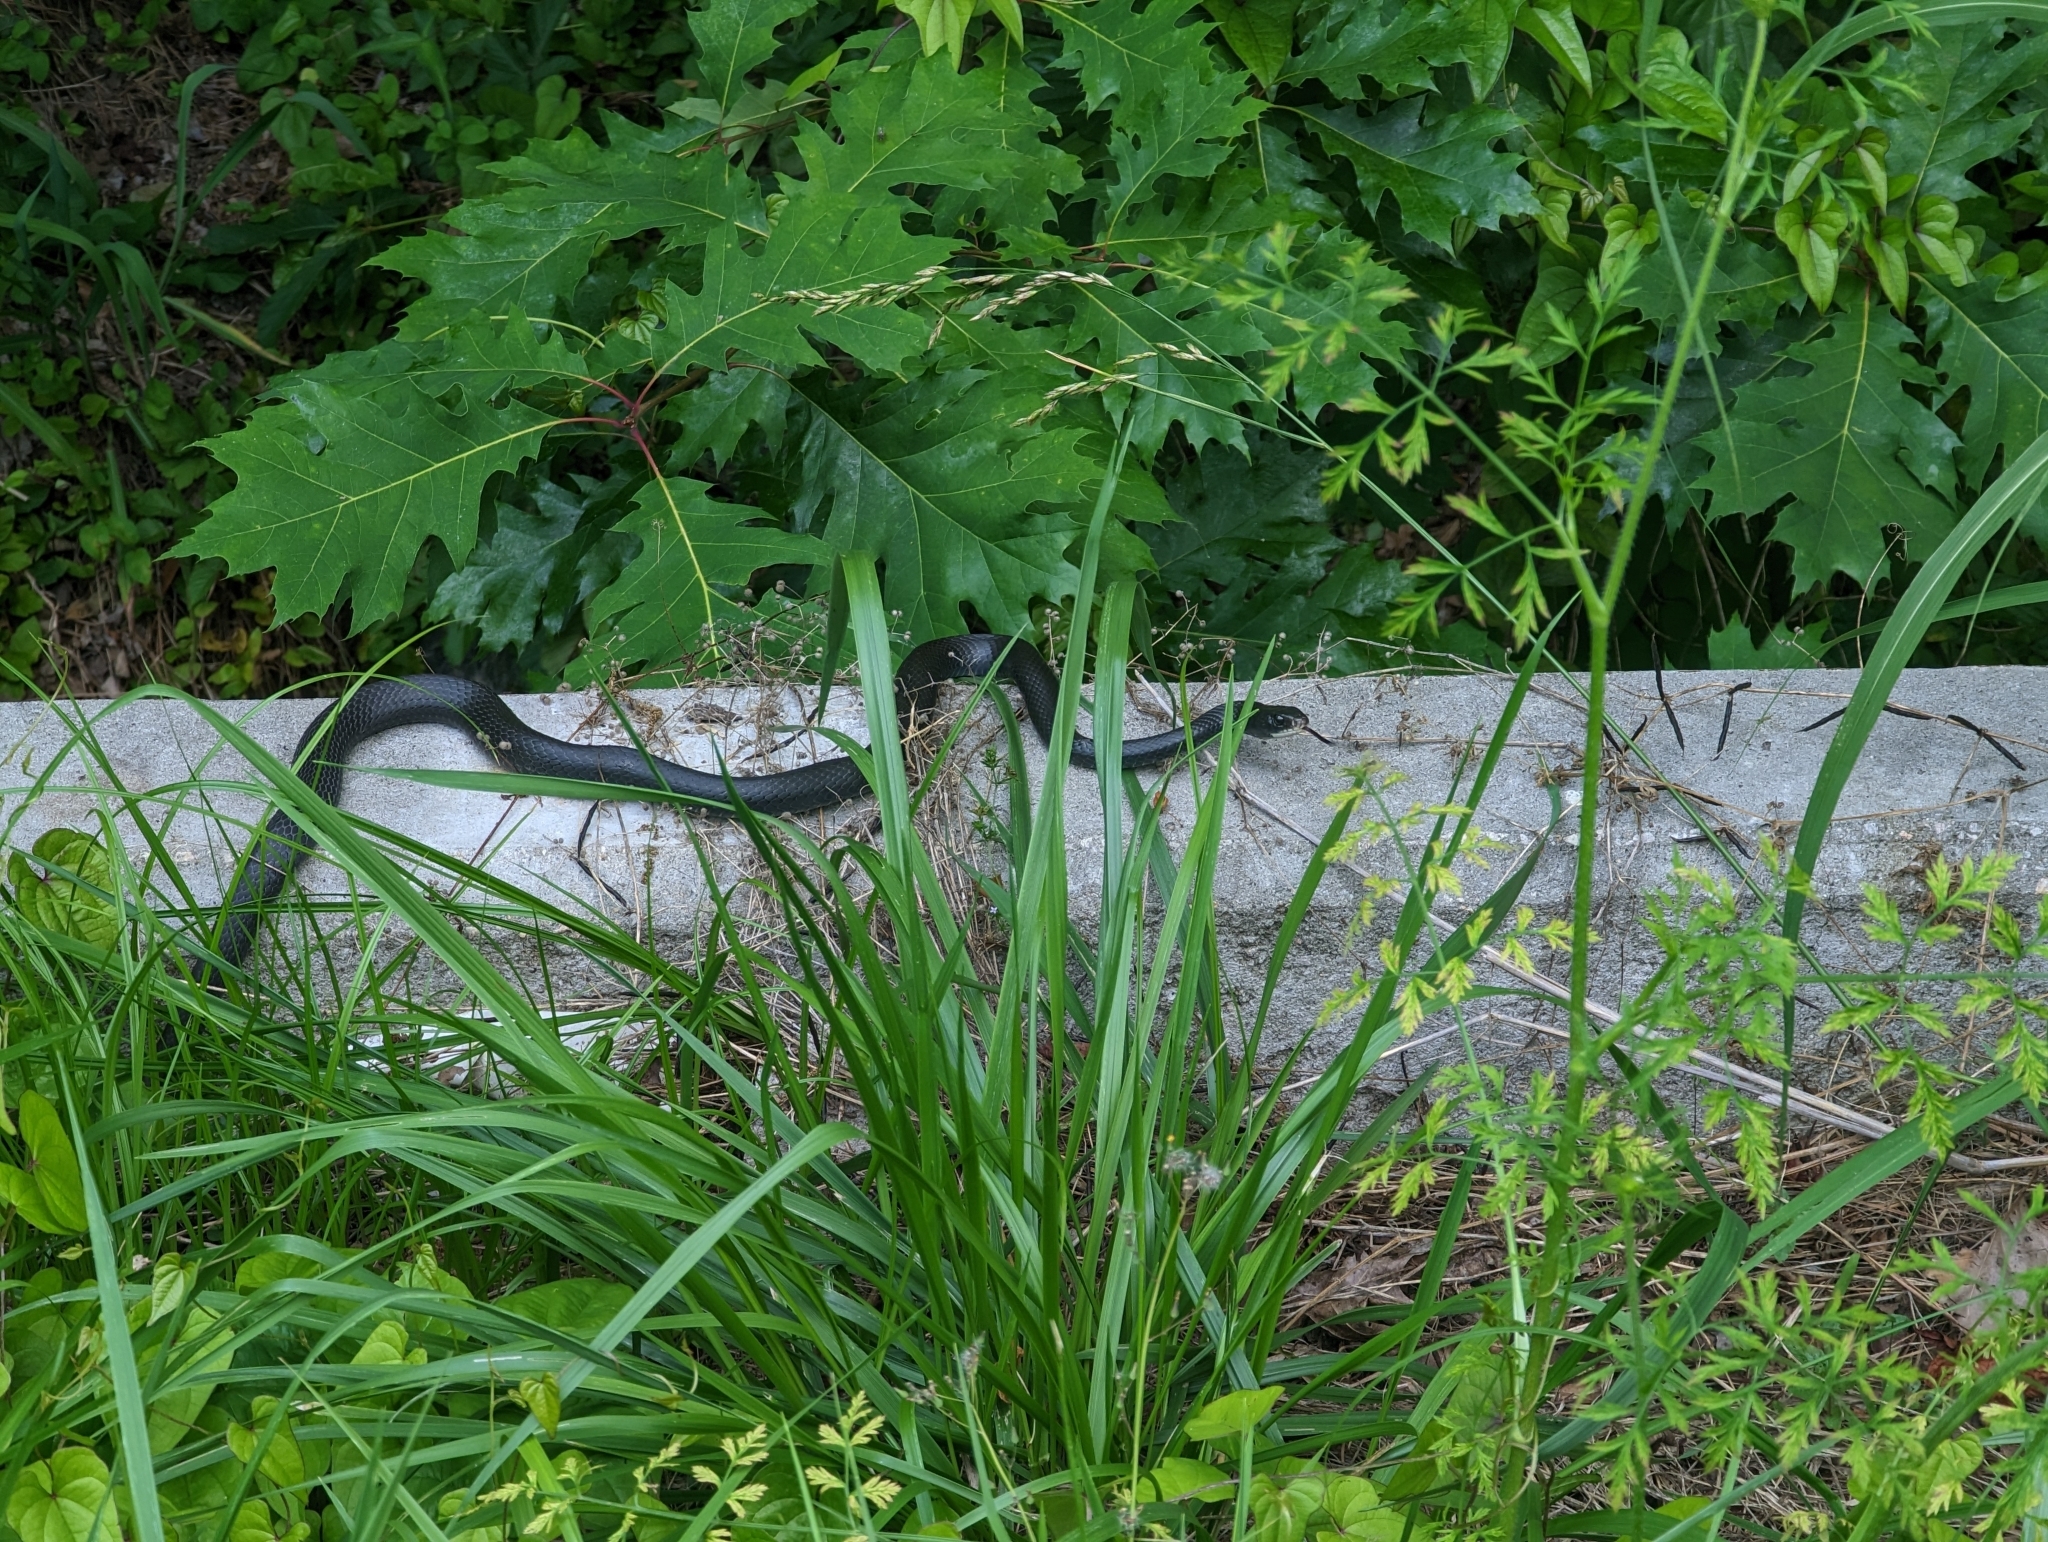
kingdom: Animalia
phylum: Chordata
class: Squamata
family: Colubridae
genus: Coluber
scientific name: Coluber constrictor
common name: Eastern racer
